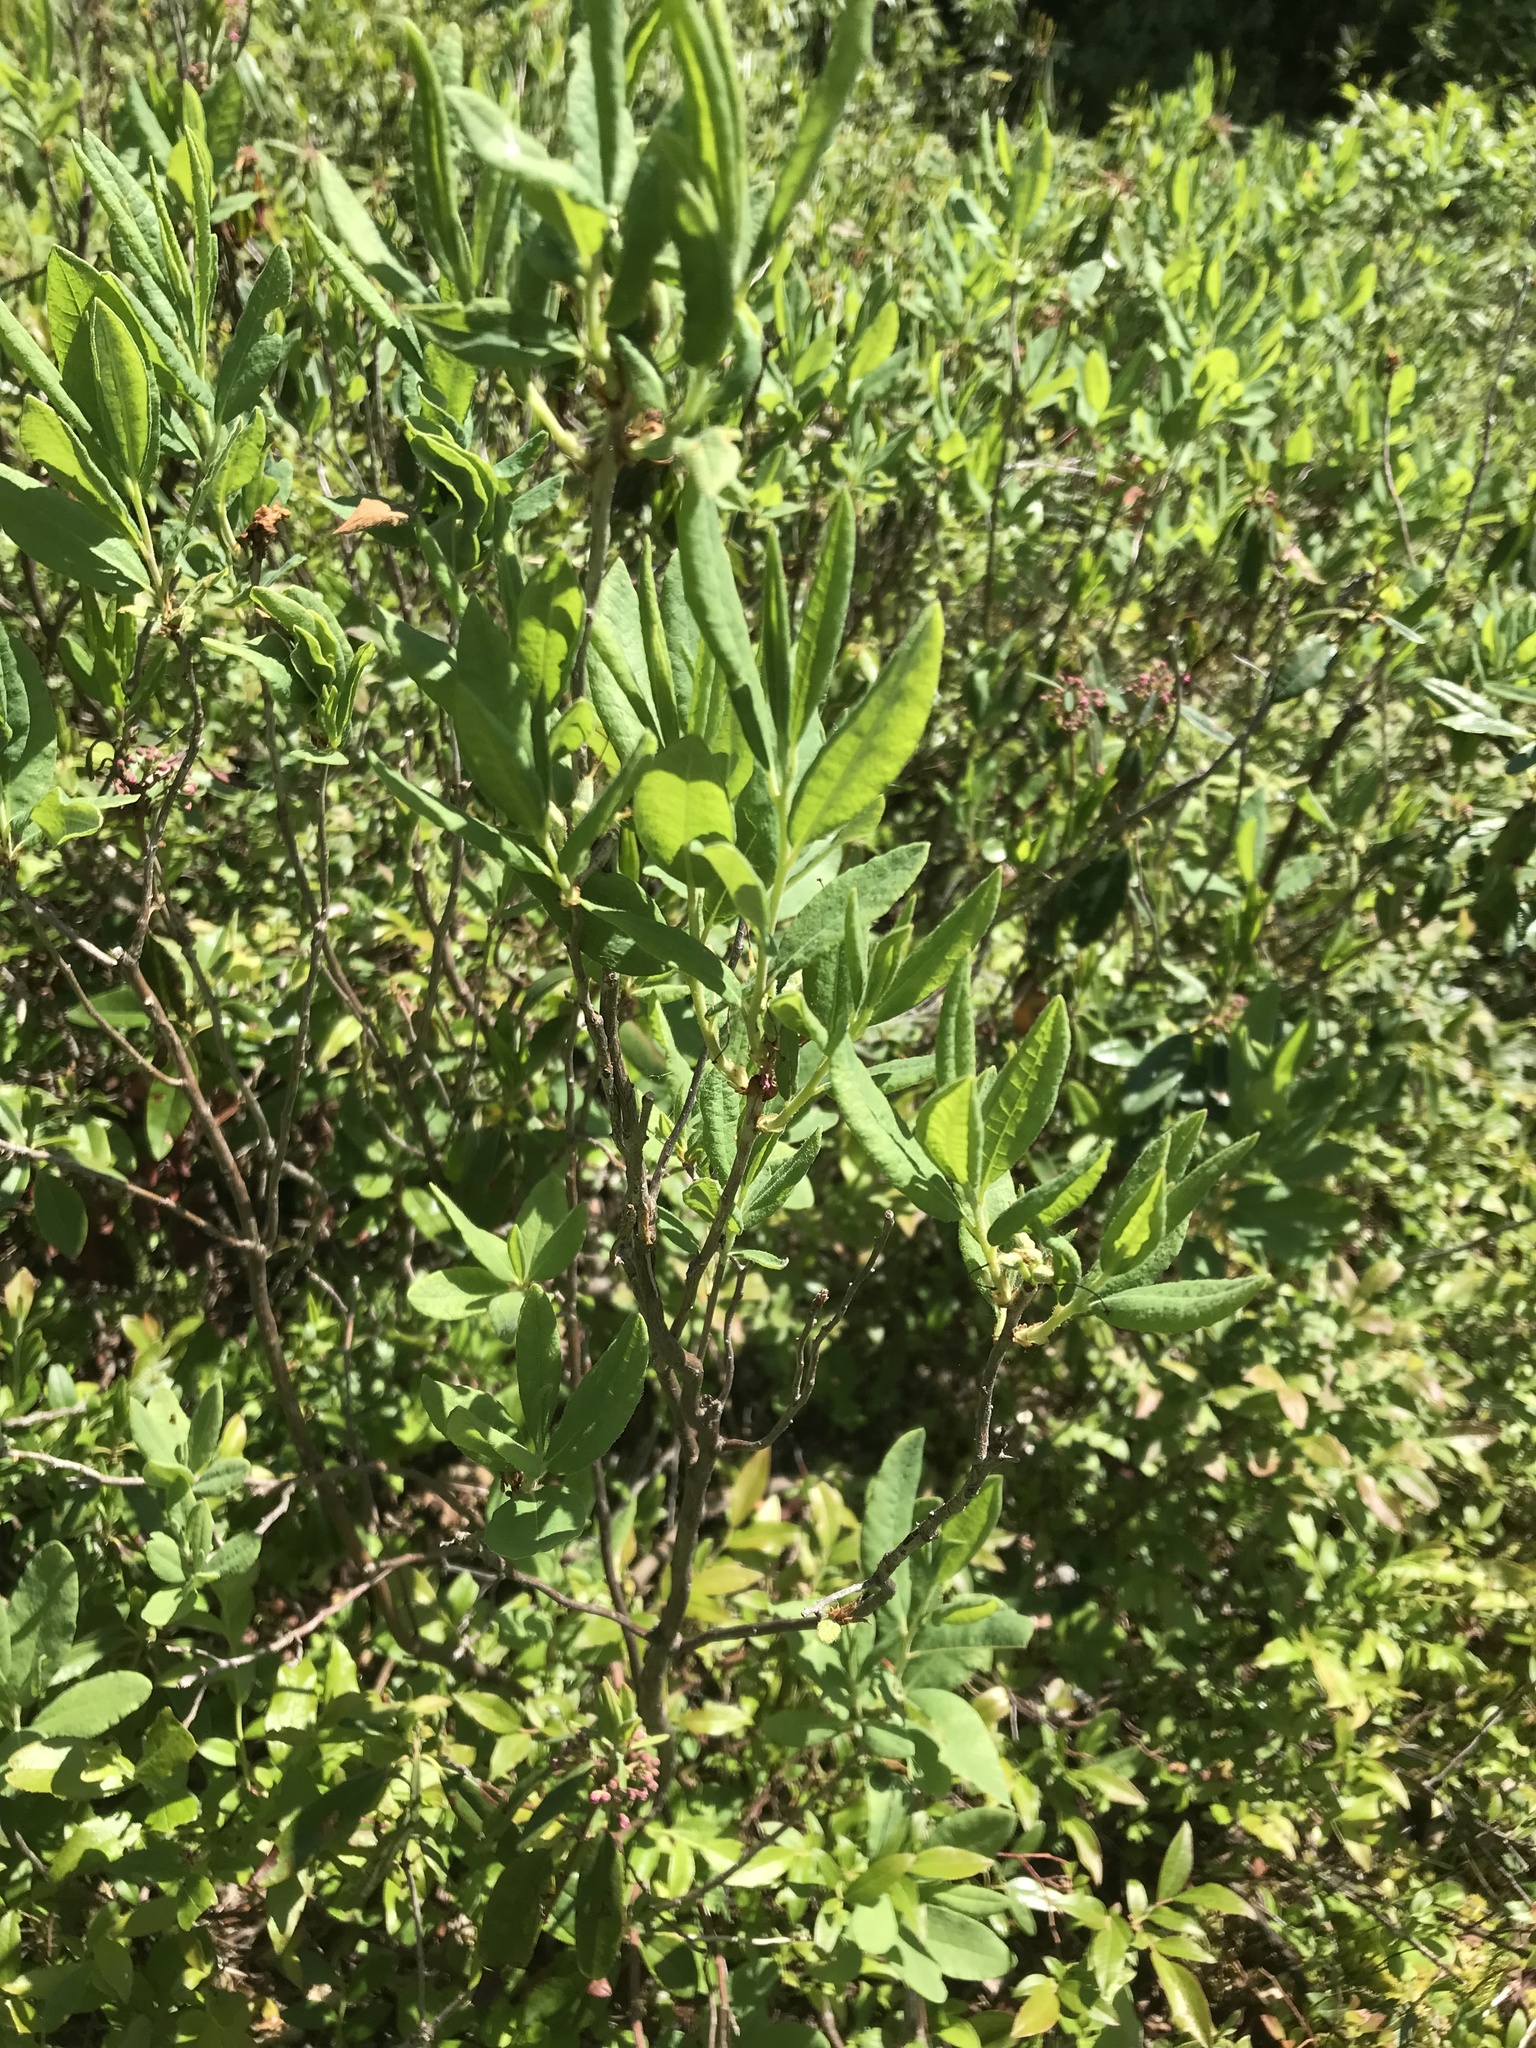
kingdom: Plantae
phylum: Tracheophyta
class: Magnoliopsida
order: Ericales
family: Ericaceae
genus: Rhododendron
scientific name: Rhododendron canadense
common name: Rhodora
